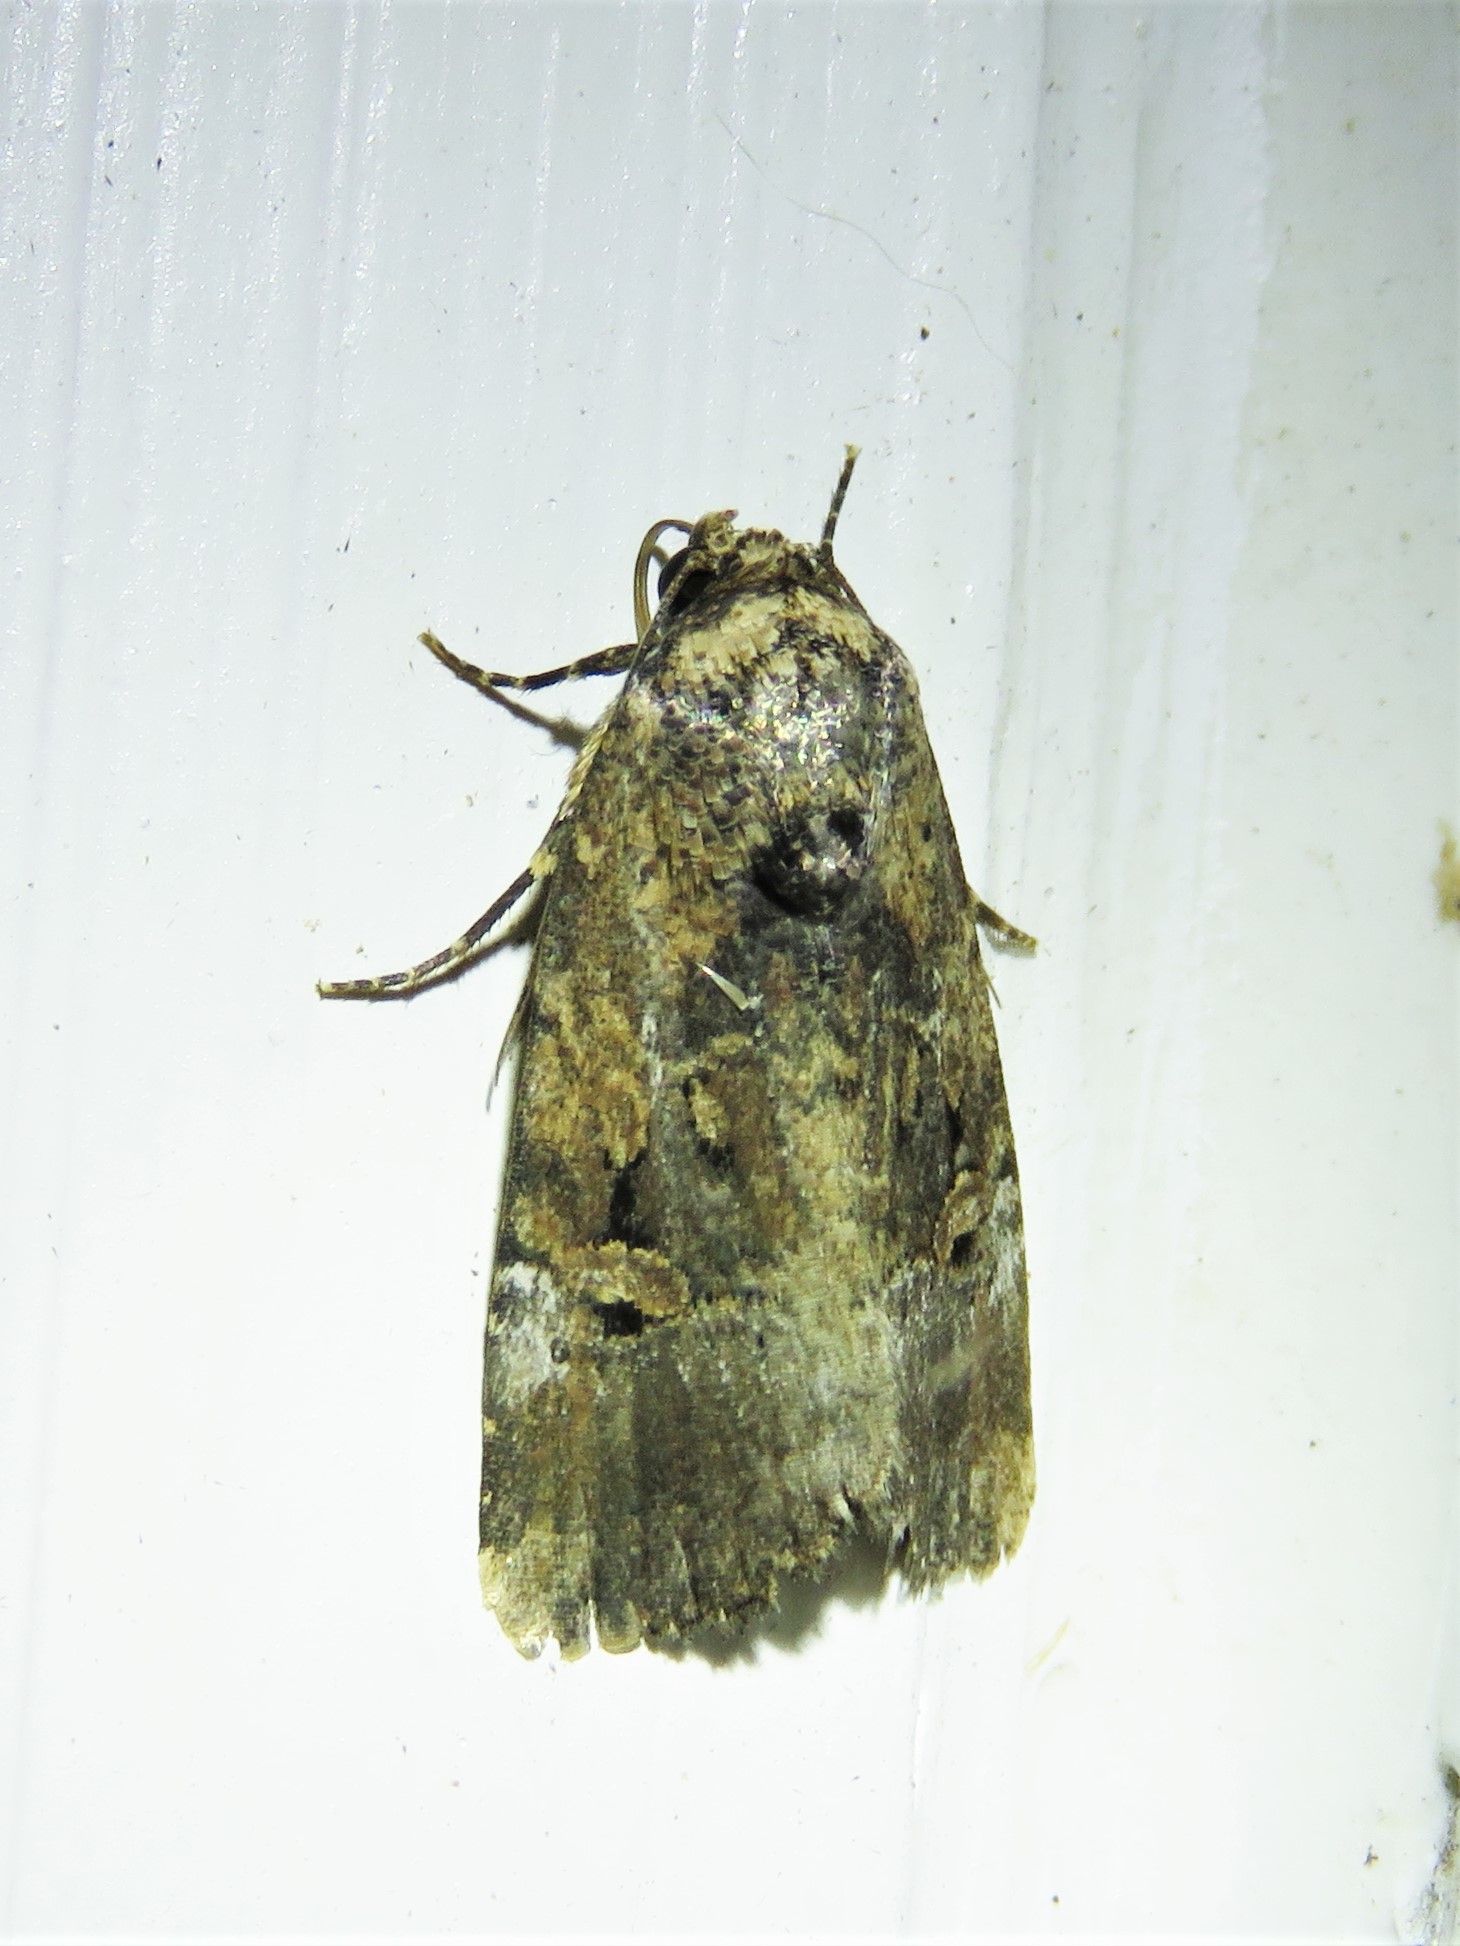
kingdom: Animalia
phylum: Arthropoda
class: Insecta
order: Lepidoptera
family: Noctuidae
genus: Elaphria
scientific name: Elaphria chalcedonia
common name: Chalcedony midget
